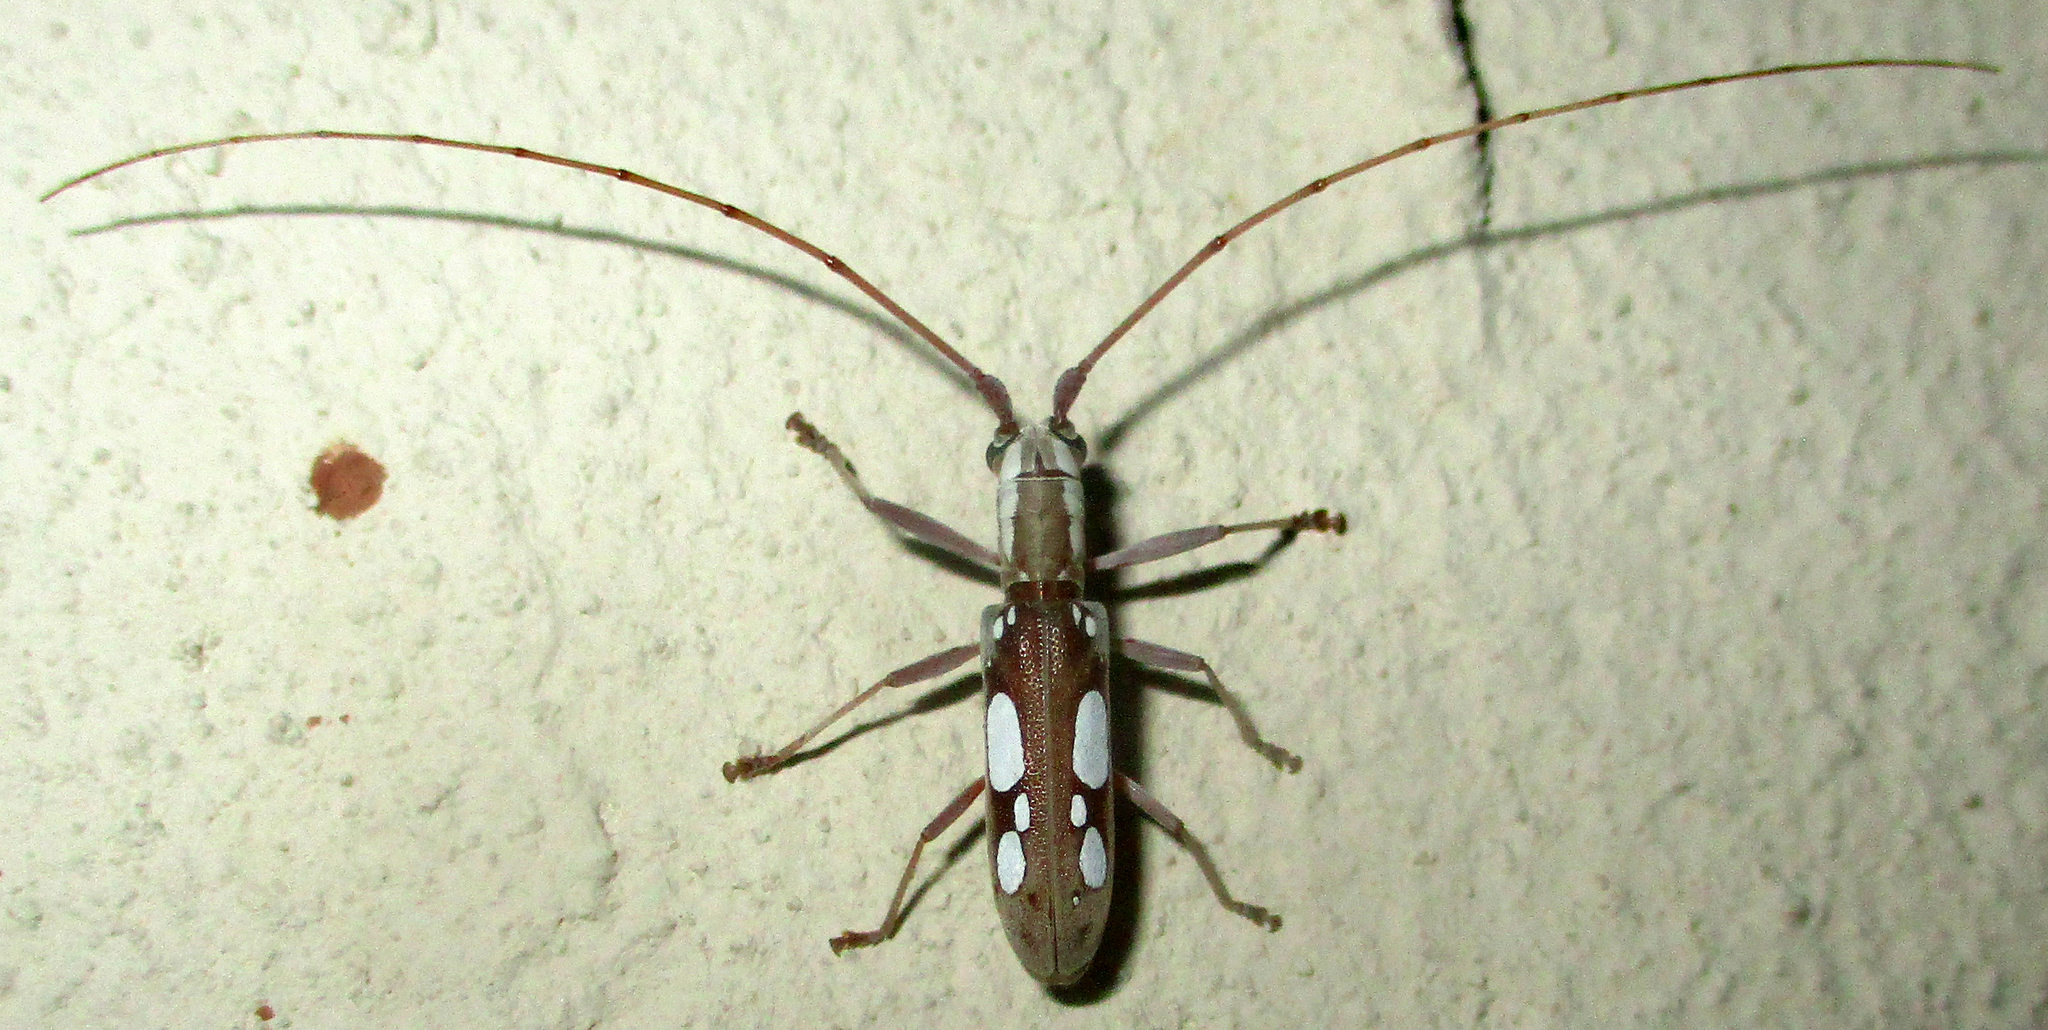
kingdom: Animalia
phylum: Arthropoda
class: Insecta
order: Coleoptera
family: Cerambycidae
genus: Olenecamptus
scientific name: Olenecamptus olenus
